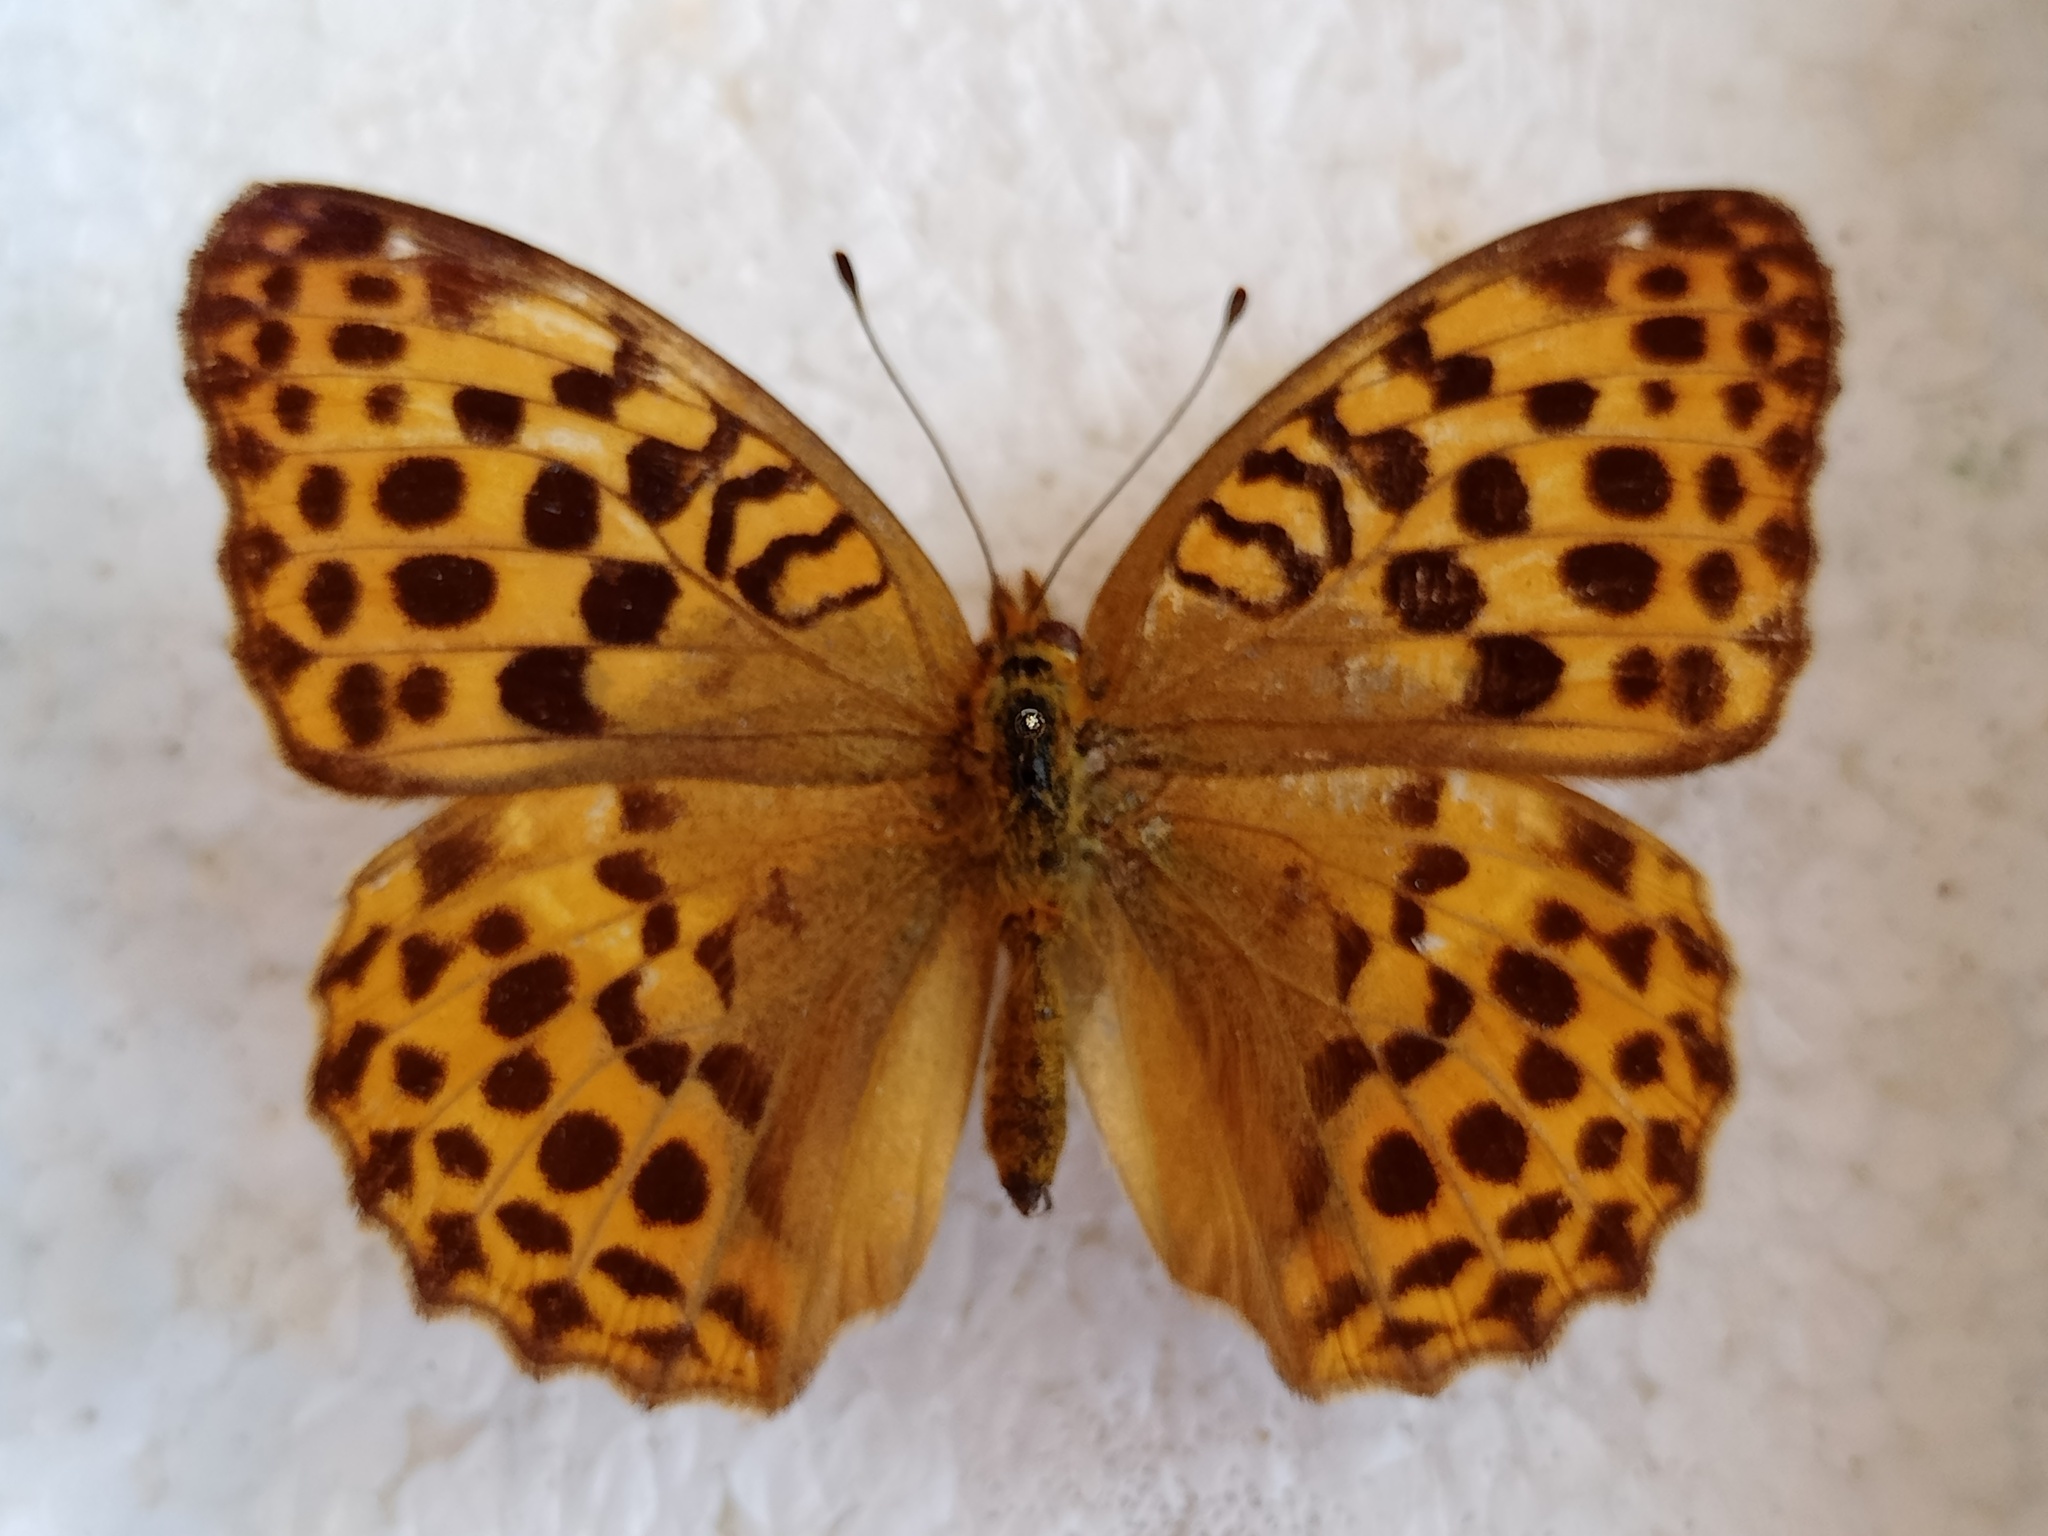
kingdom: Animalia
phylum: Arthropoda
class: Insecta
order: Lepidoptera
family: Nymphalidae
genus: Argyronome
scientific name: Argyronome laodice
